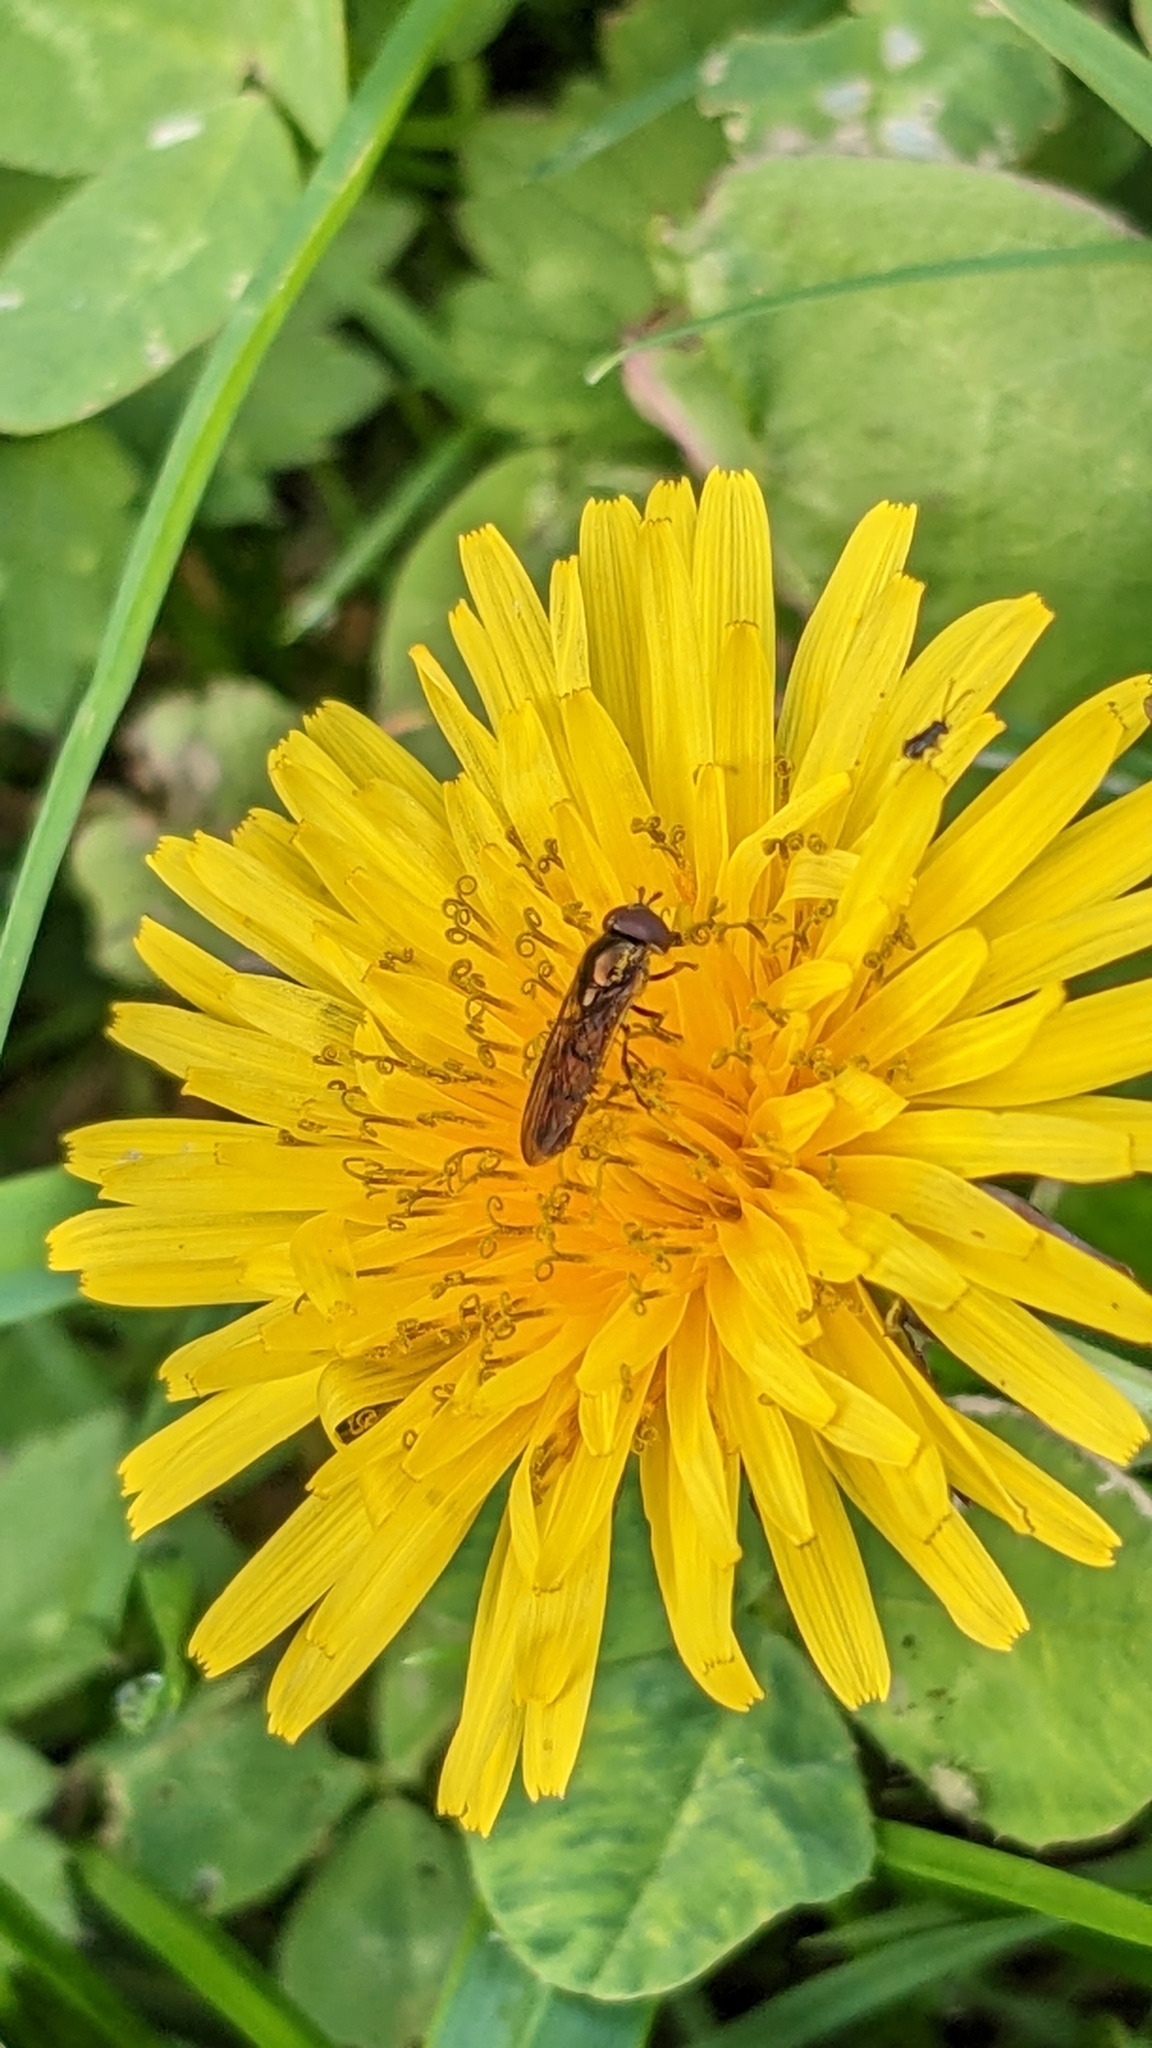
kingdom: Animalia
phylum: Arthropoda
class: Insecta
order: Diptera
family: Syrphidae
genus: Melanostoma
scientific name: Melanostoma fasciatum
